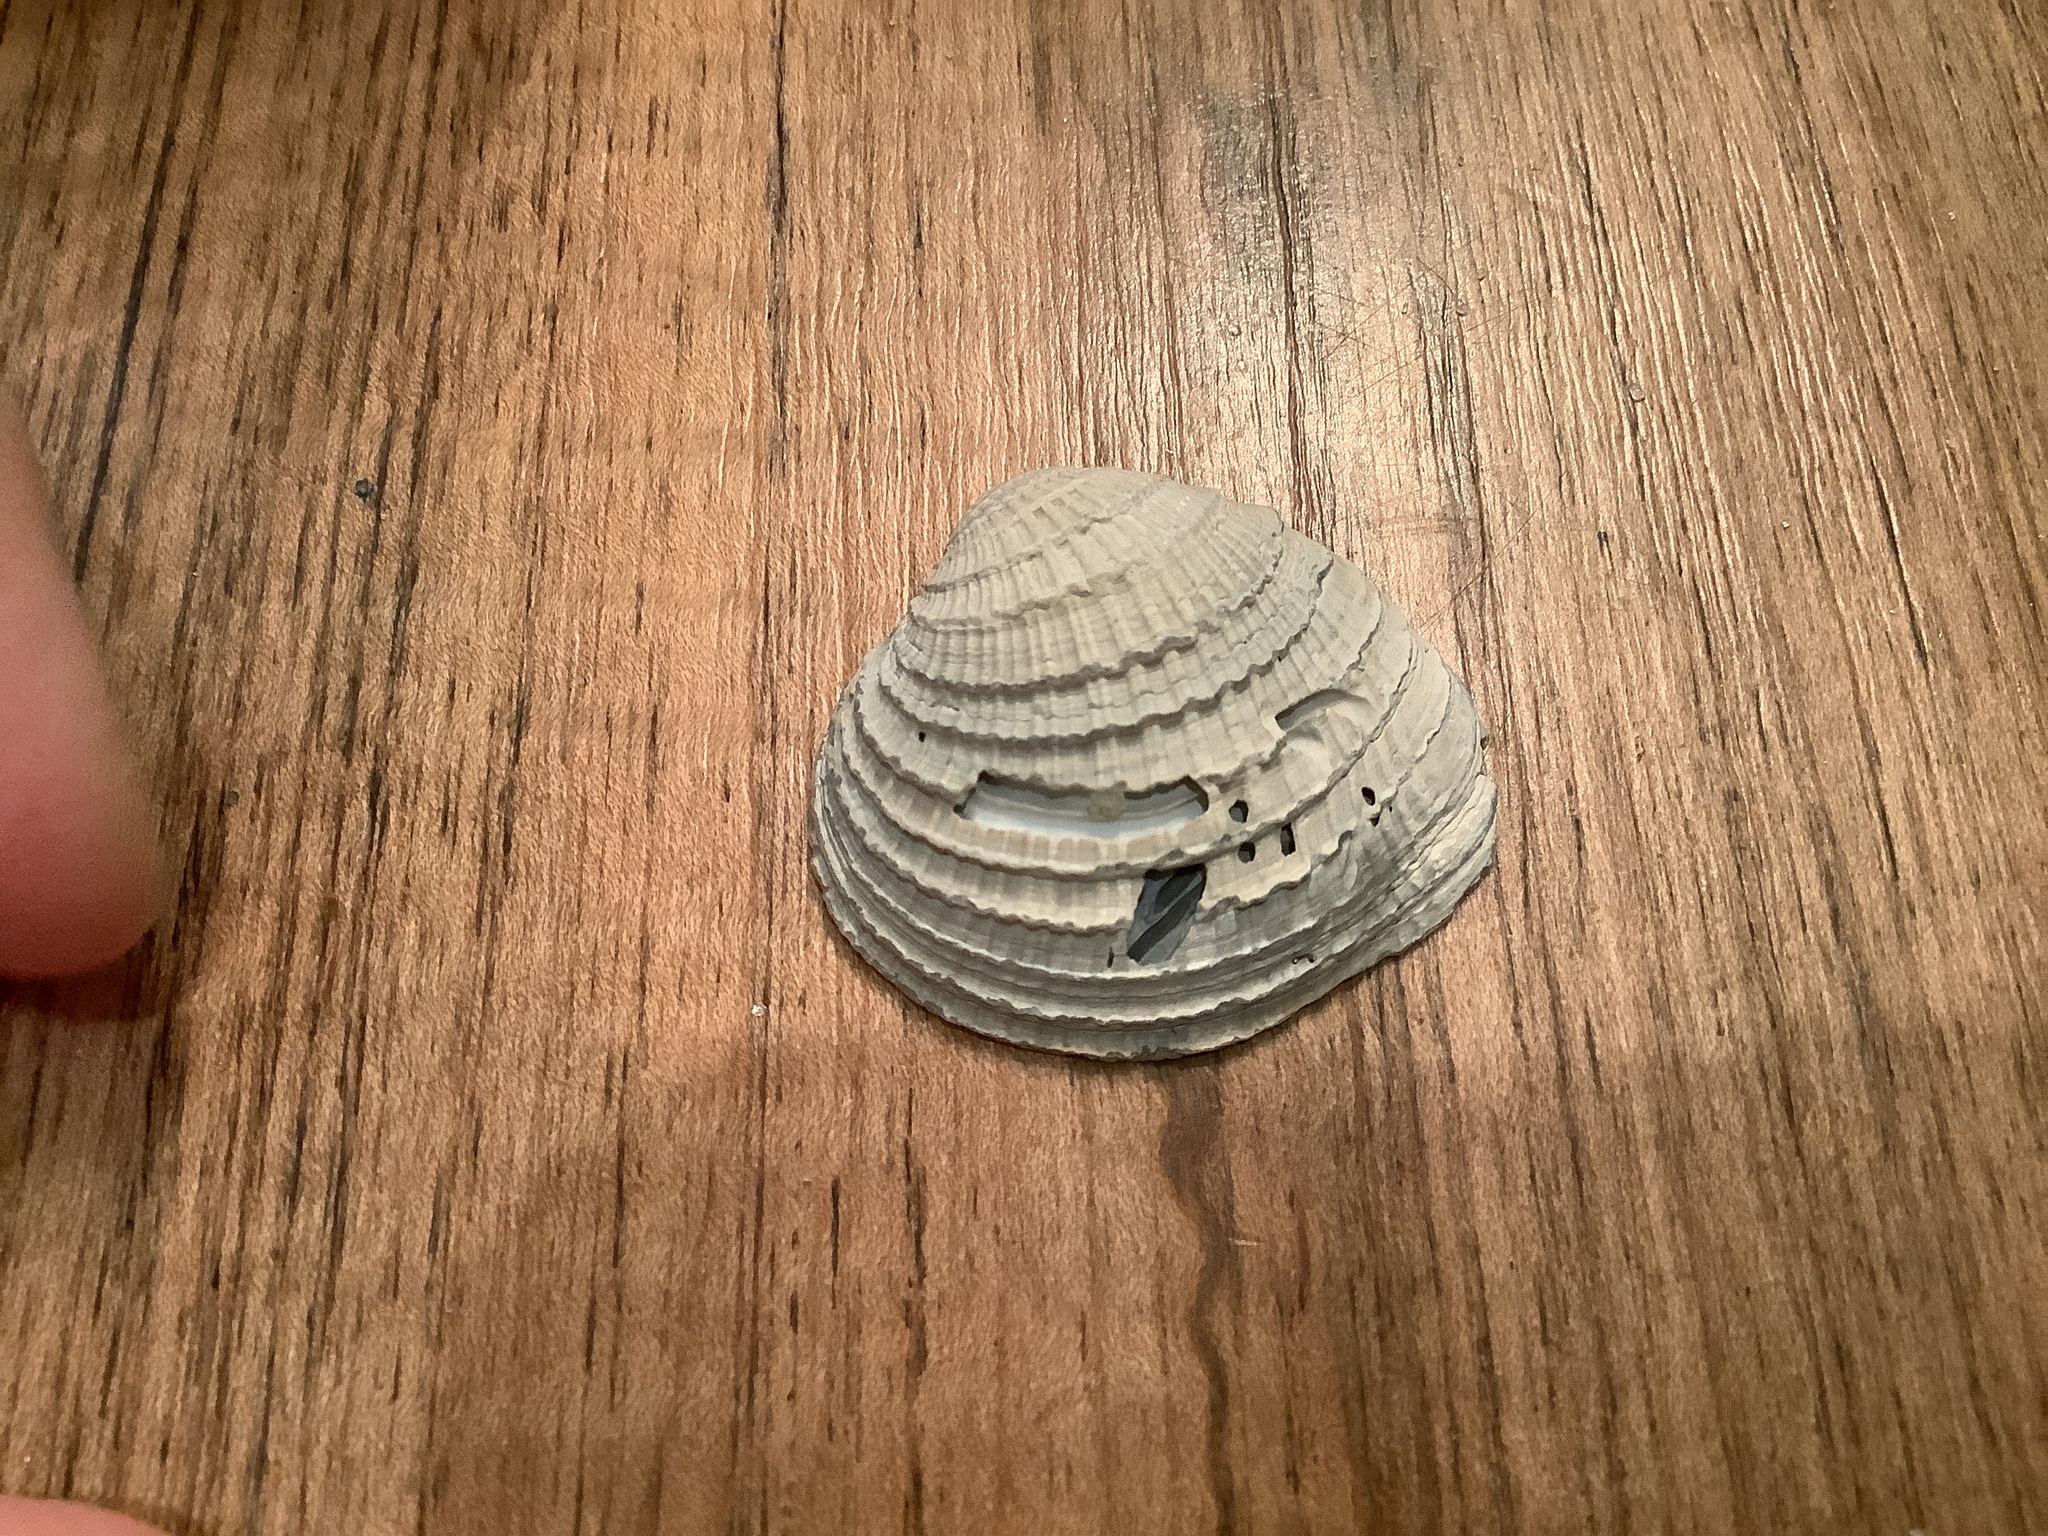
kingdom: Animalia
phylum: Mollusca
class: Bivalvia
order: Venerida
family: Veneridae
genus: Chione
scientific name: Chione elevata
